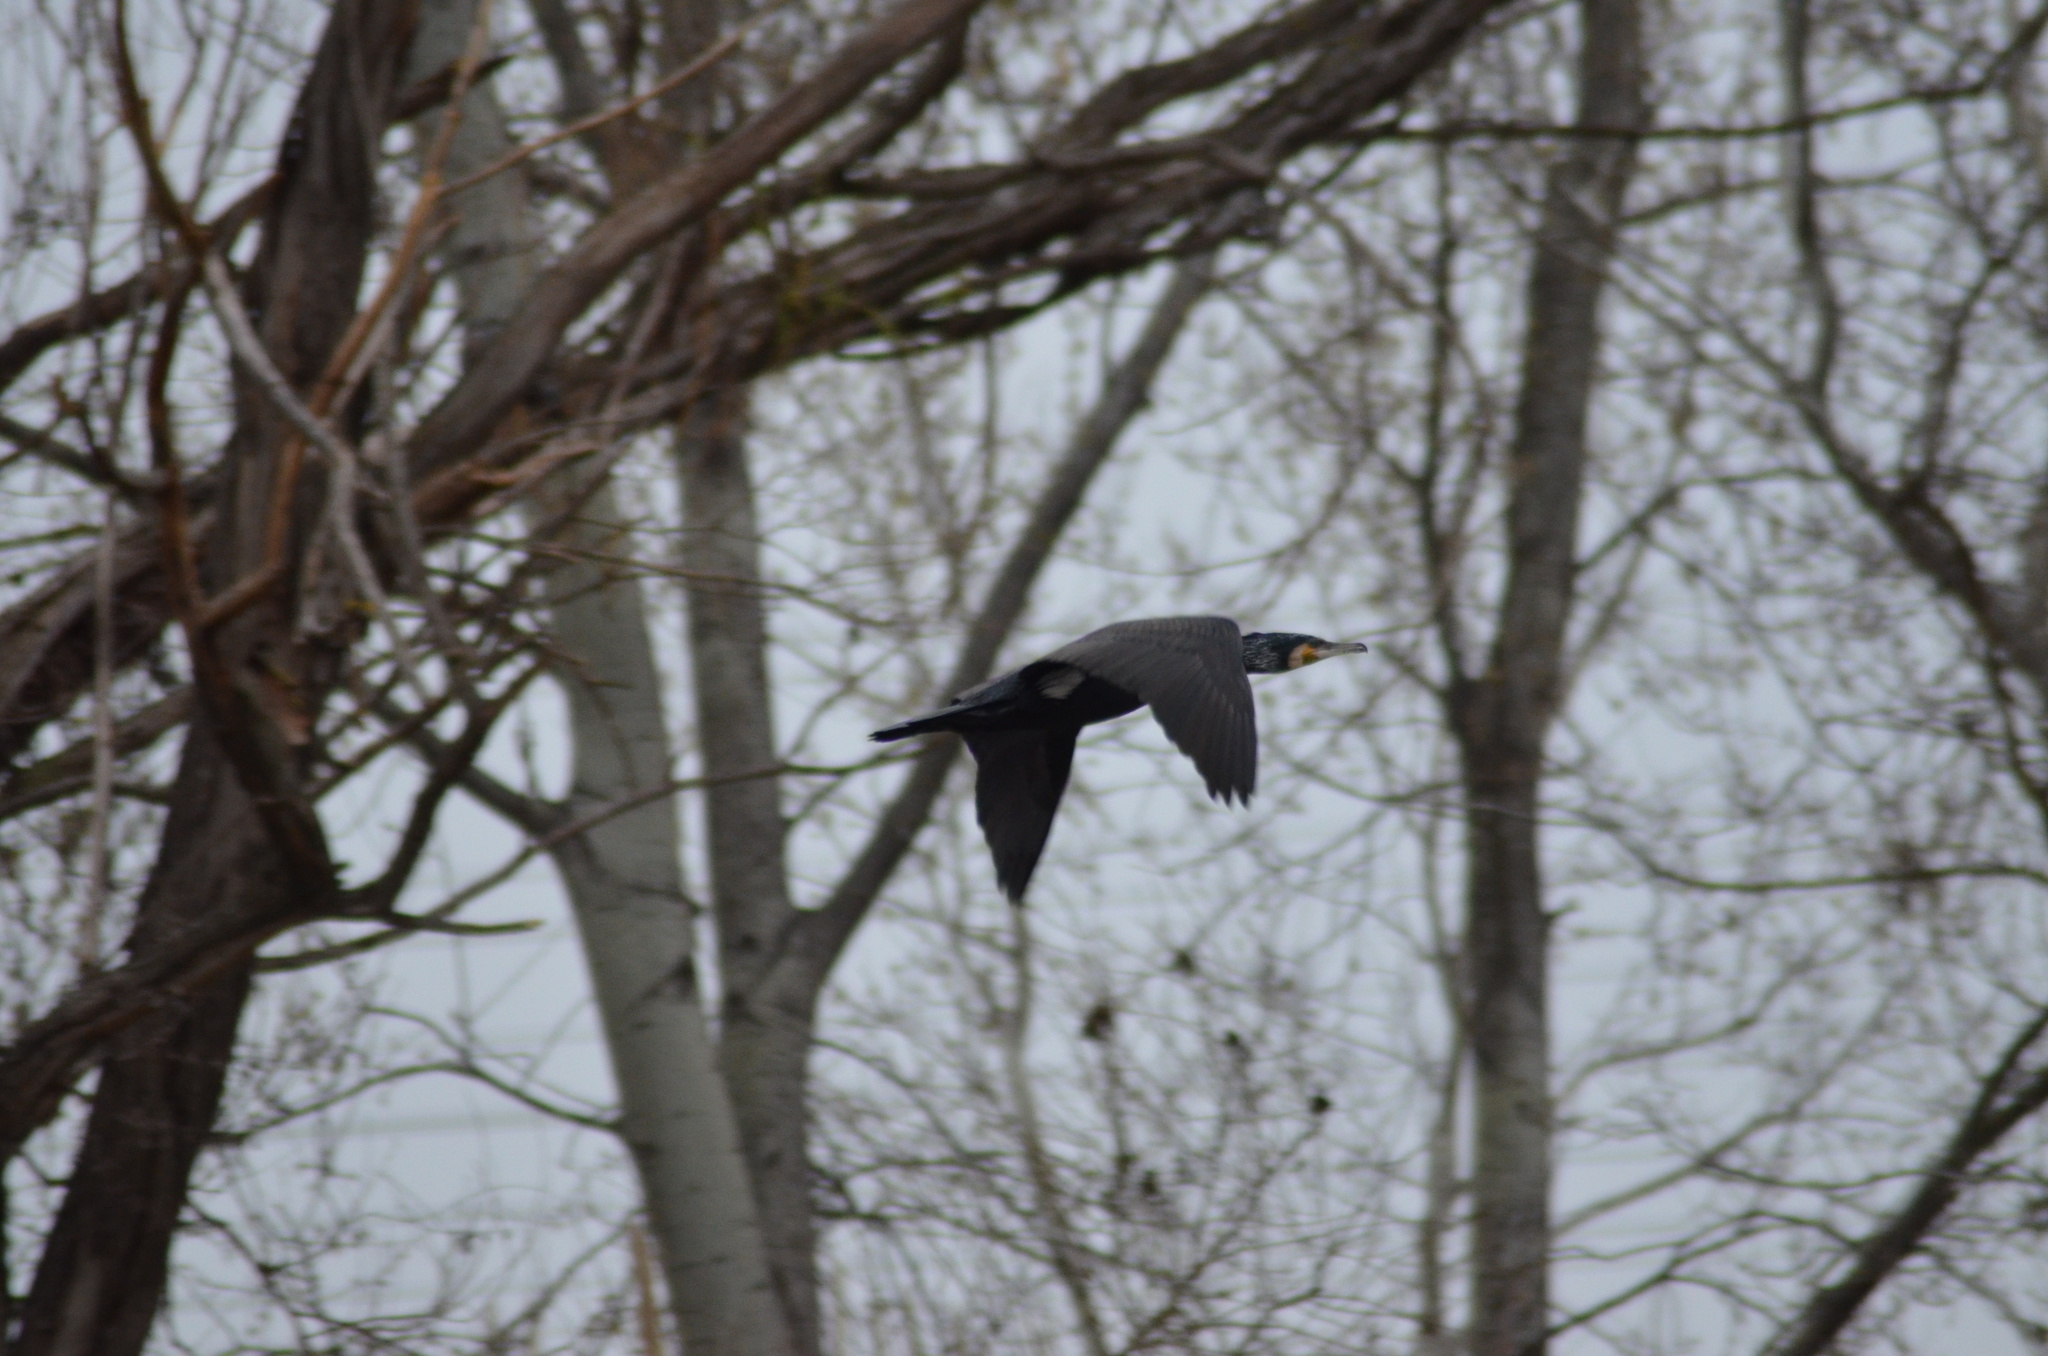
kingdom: Animalia
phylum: Chordata
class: Aves
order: Suliformes
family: Phalacrocoracidae
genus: Phalacrocorax
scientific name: Phalacrocorax carbo
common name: Great cormorant
